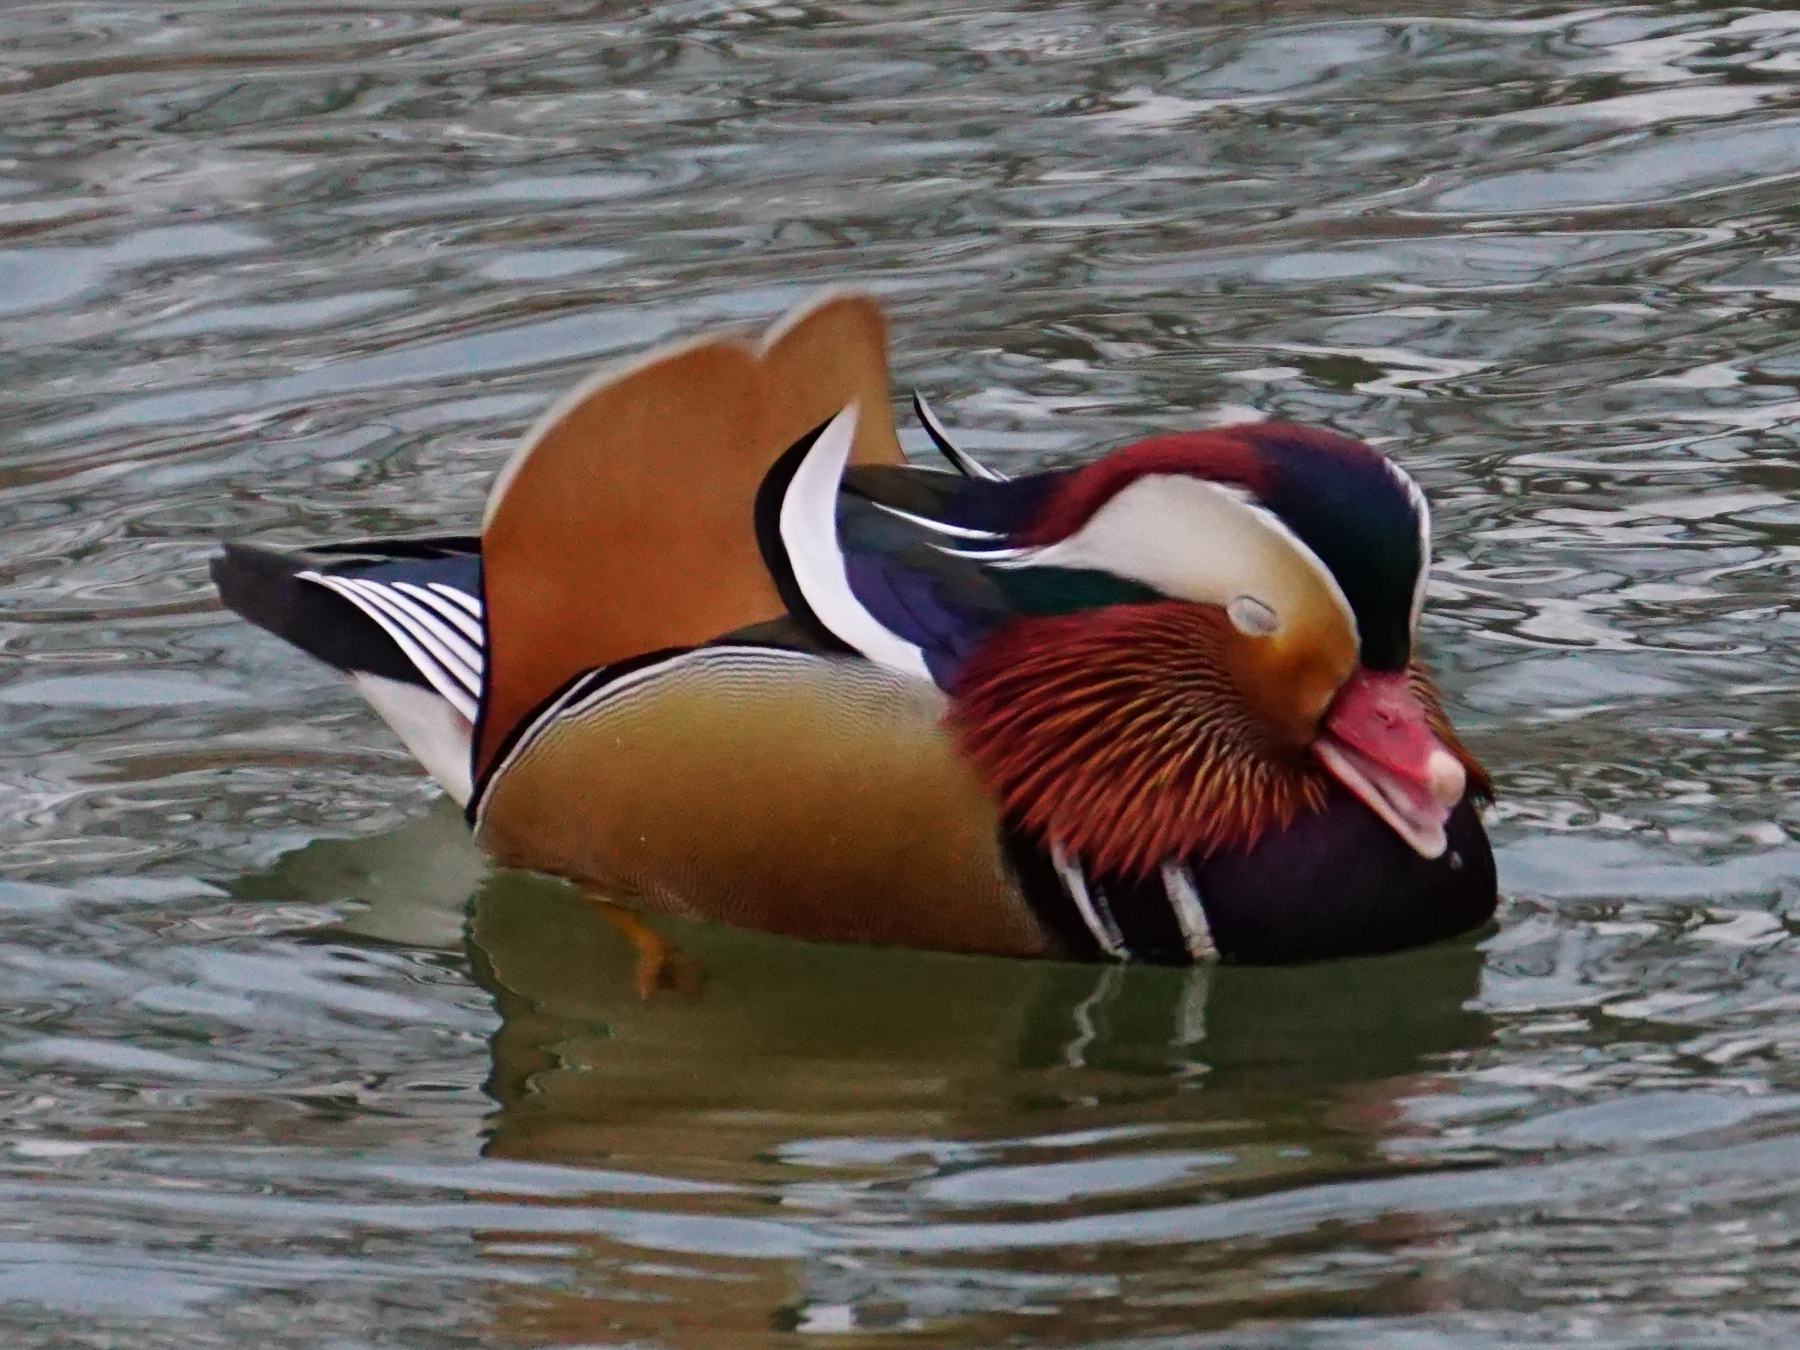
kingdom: Animalia
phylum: Chordata
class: Aves
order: Anseriformes
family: Anatidae
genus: Aix
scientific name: Aix galericulata
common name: Mandarin duck
